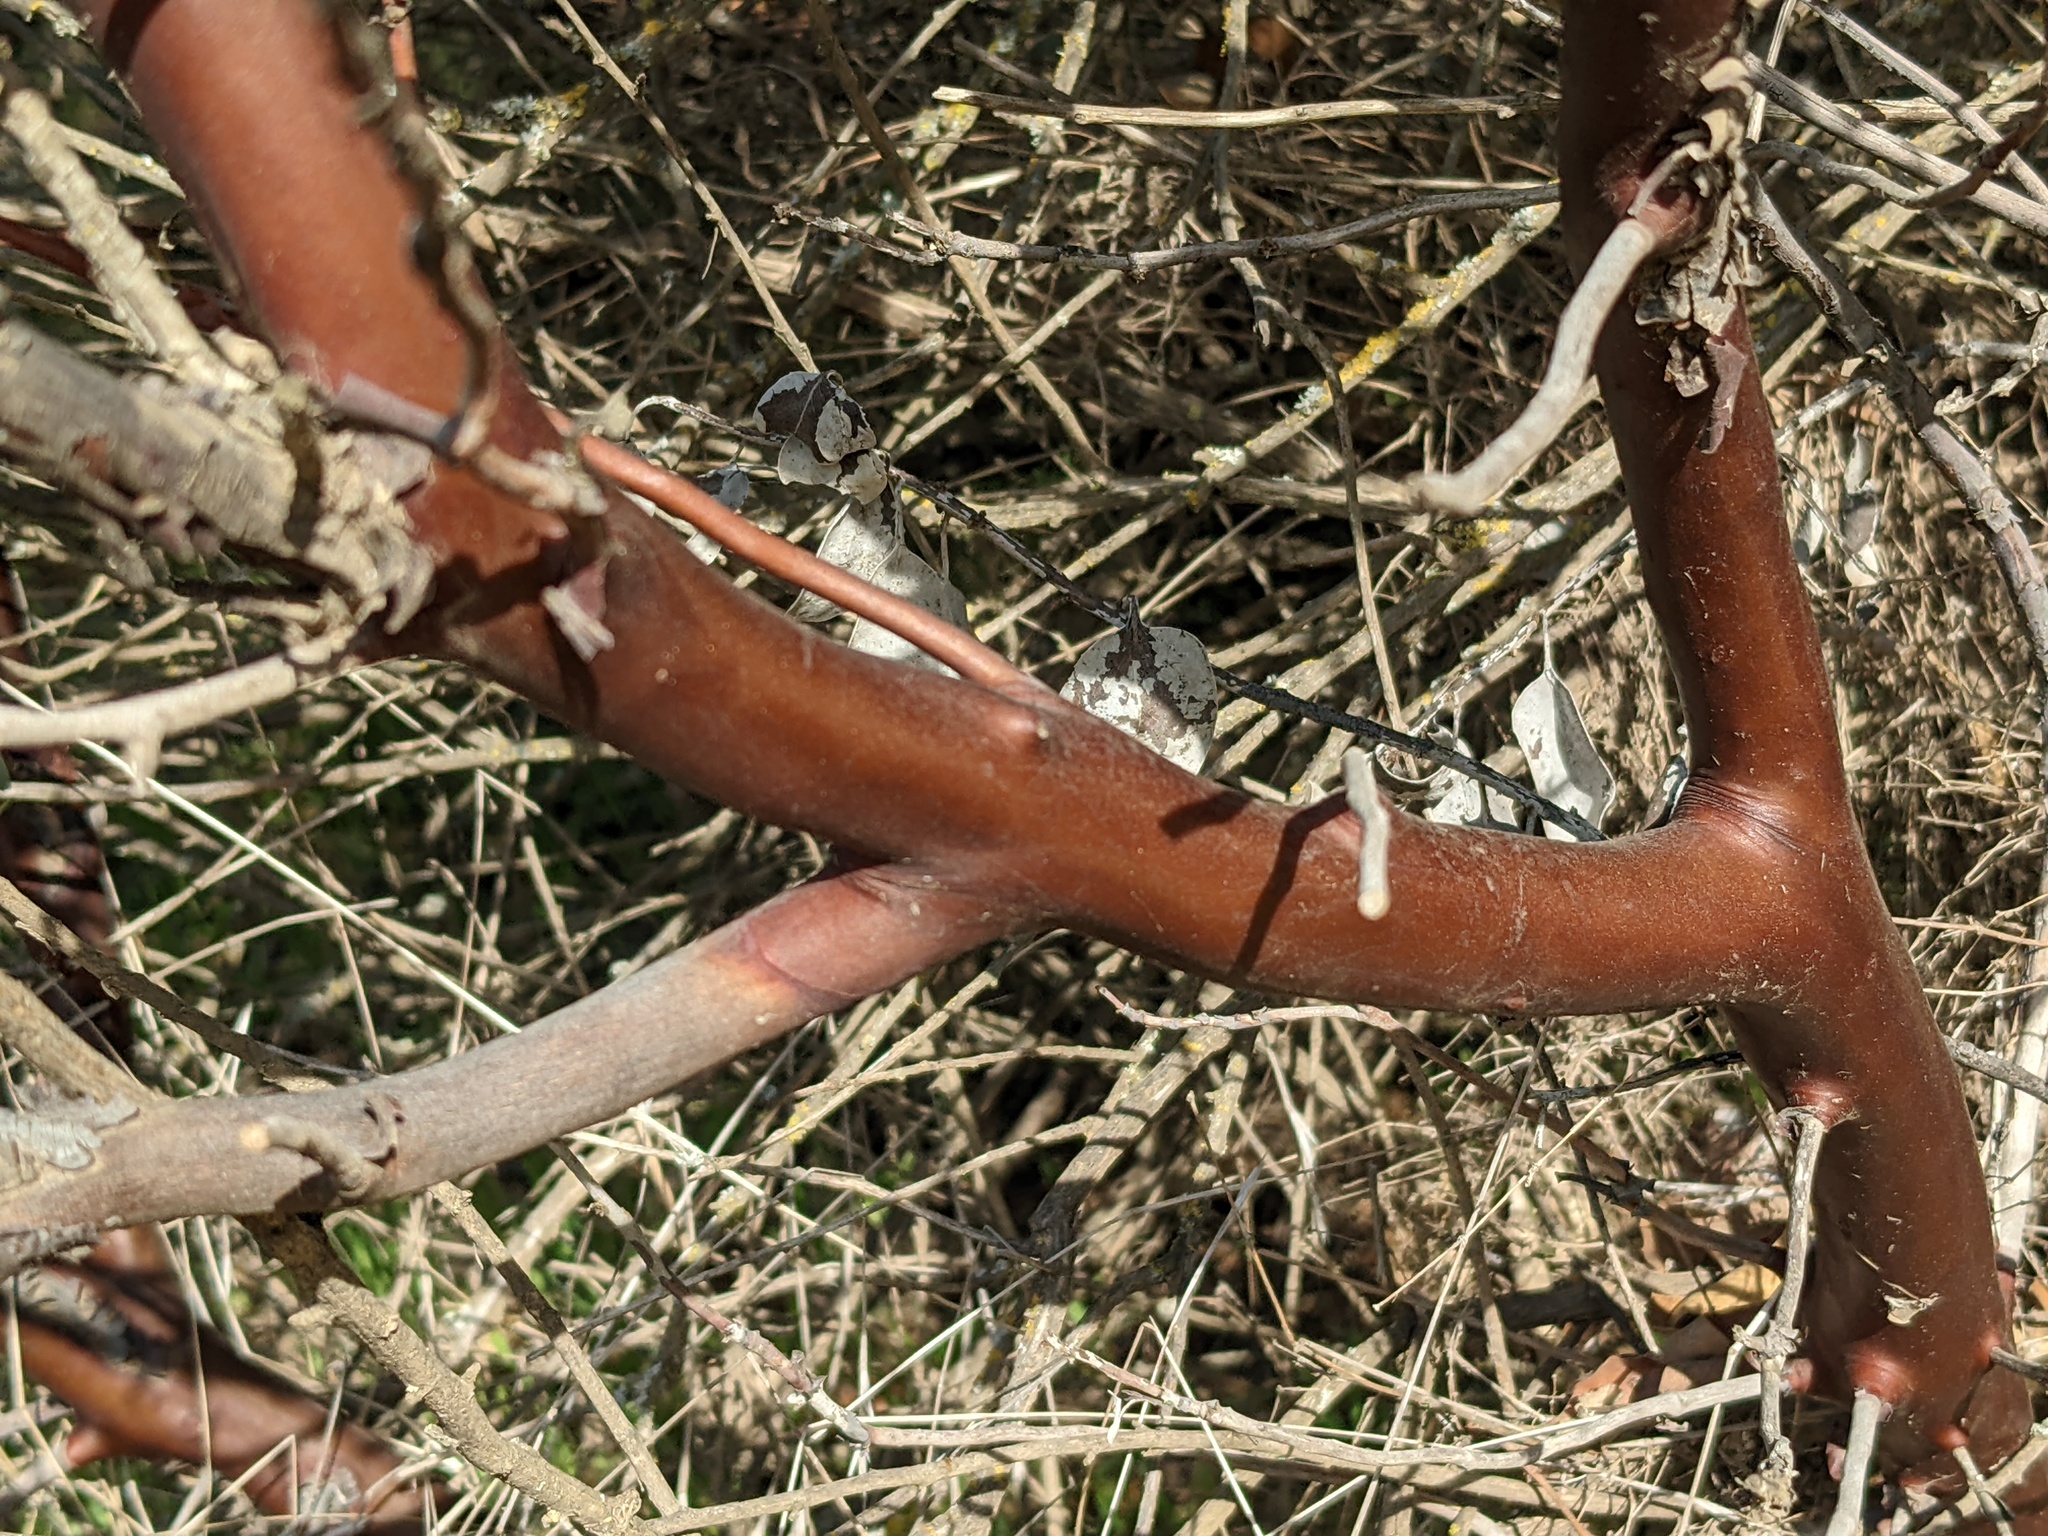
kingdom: Plantae
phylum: Tracheophyta
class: Magnoliopsida
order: Ericales
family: Ericaceae
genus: Arctostaphylos
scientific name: Arctostaphylos glauca
